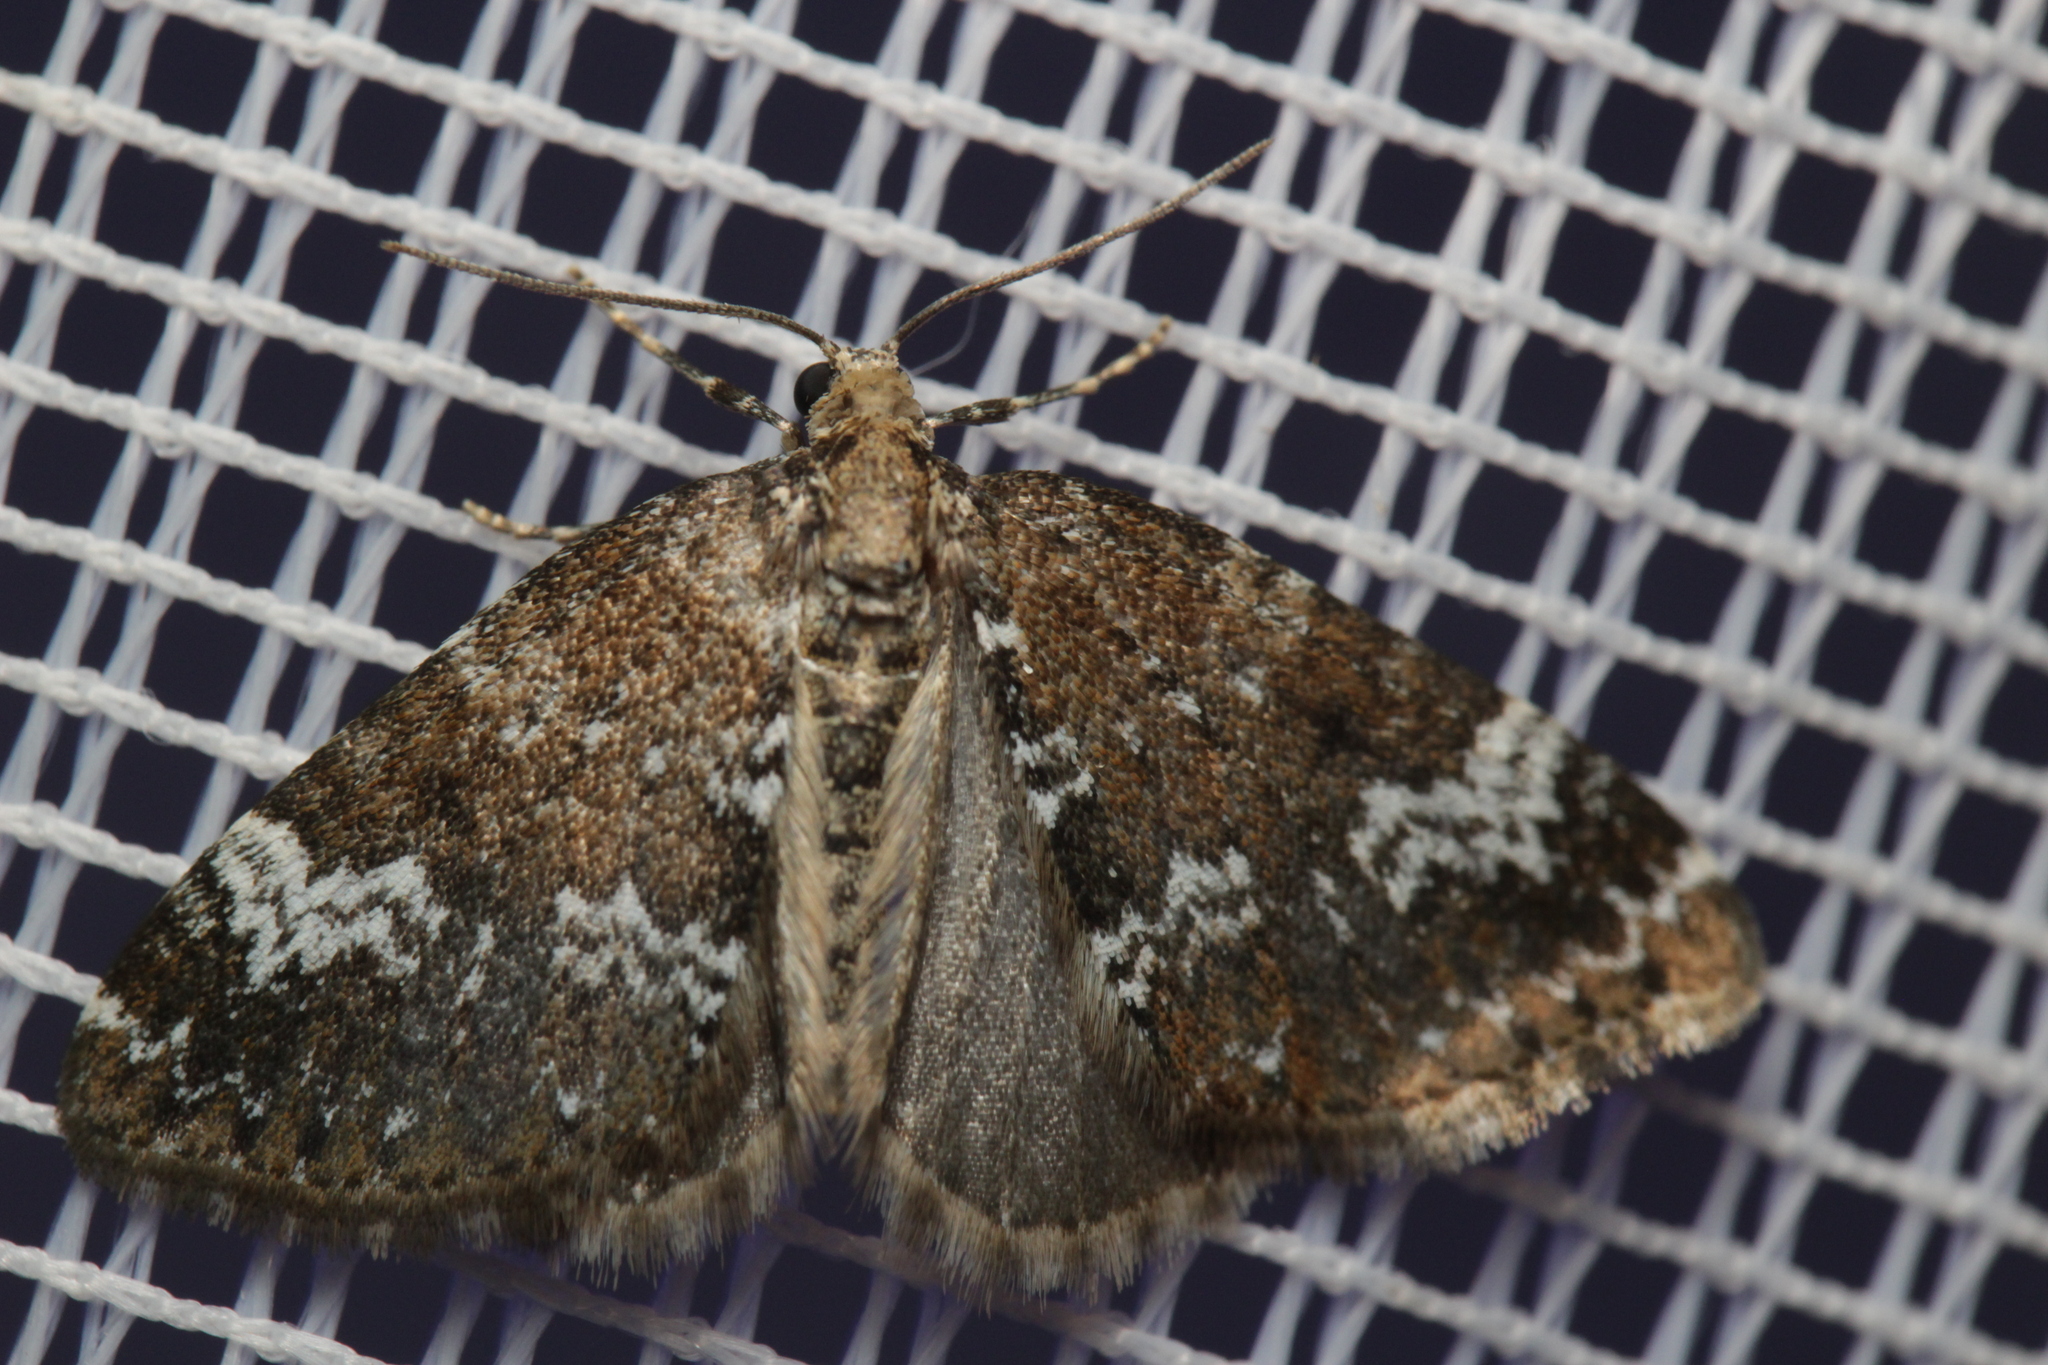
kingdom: Animalia
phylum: Arthropoda
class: Insecta
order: Lepidoptera
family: Geometridae
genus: Perizoma
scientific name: Perizoma alchemillata
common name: Small rivulet
